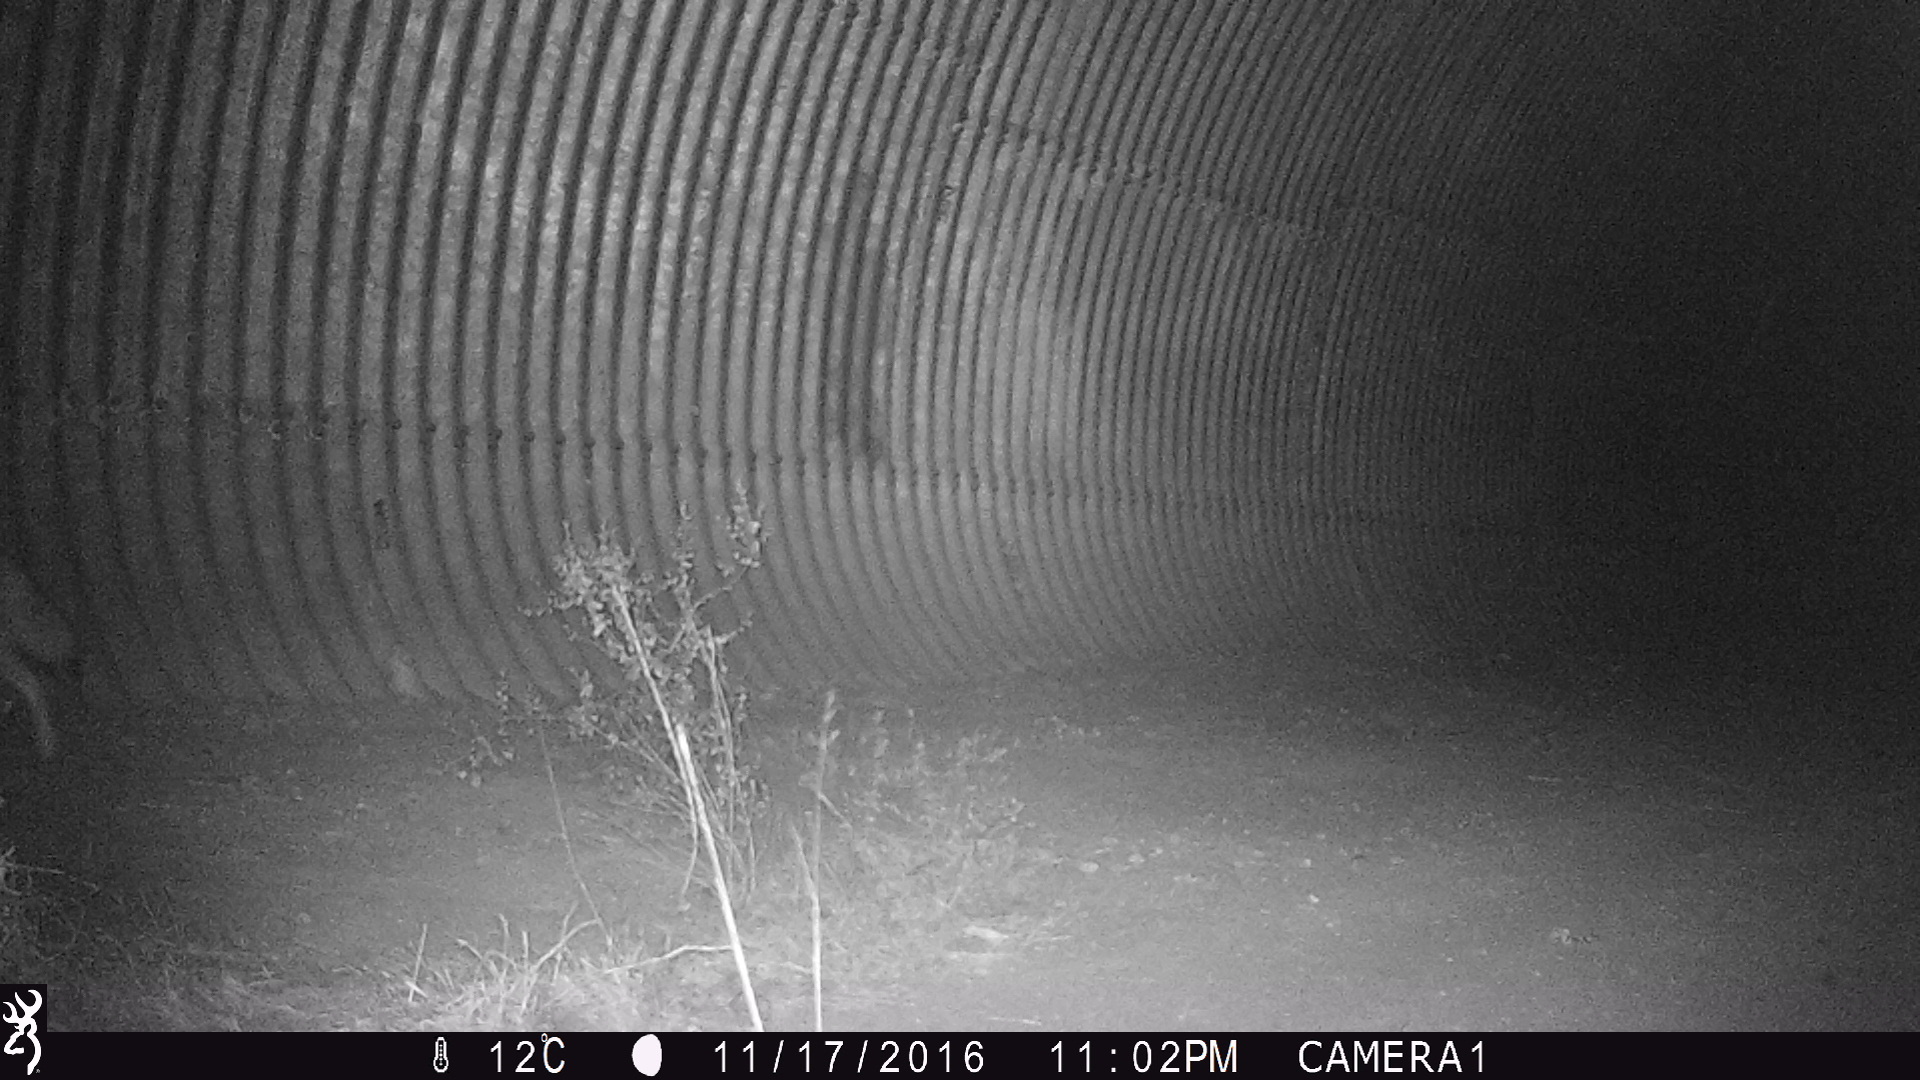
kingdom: Animalia
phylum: Chordata
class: Mammalia
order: Carnivora
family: Canidae
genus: Canis
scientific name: Canis latrans
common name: Coyote
